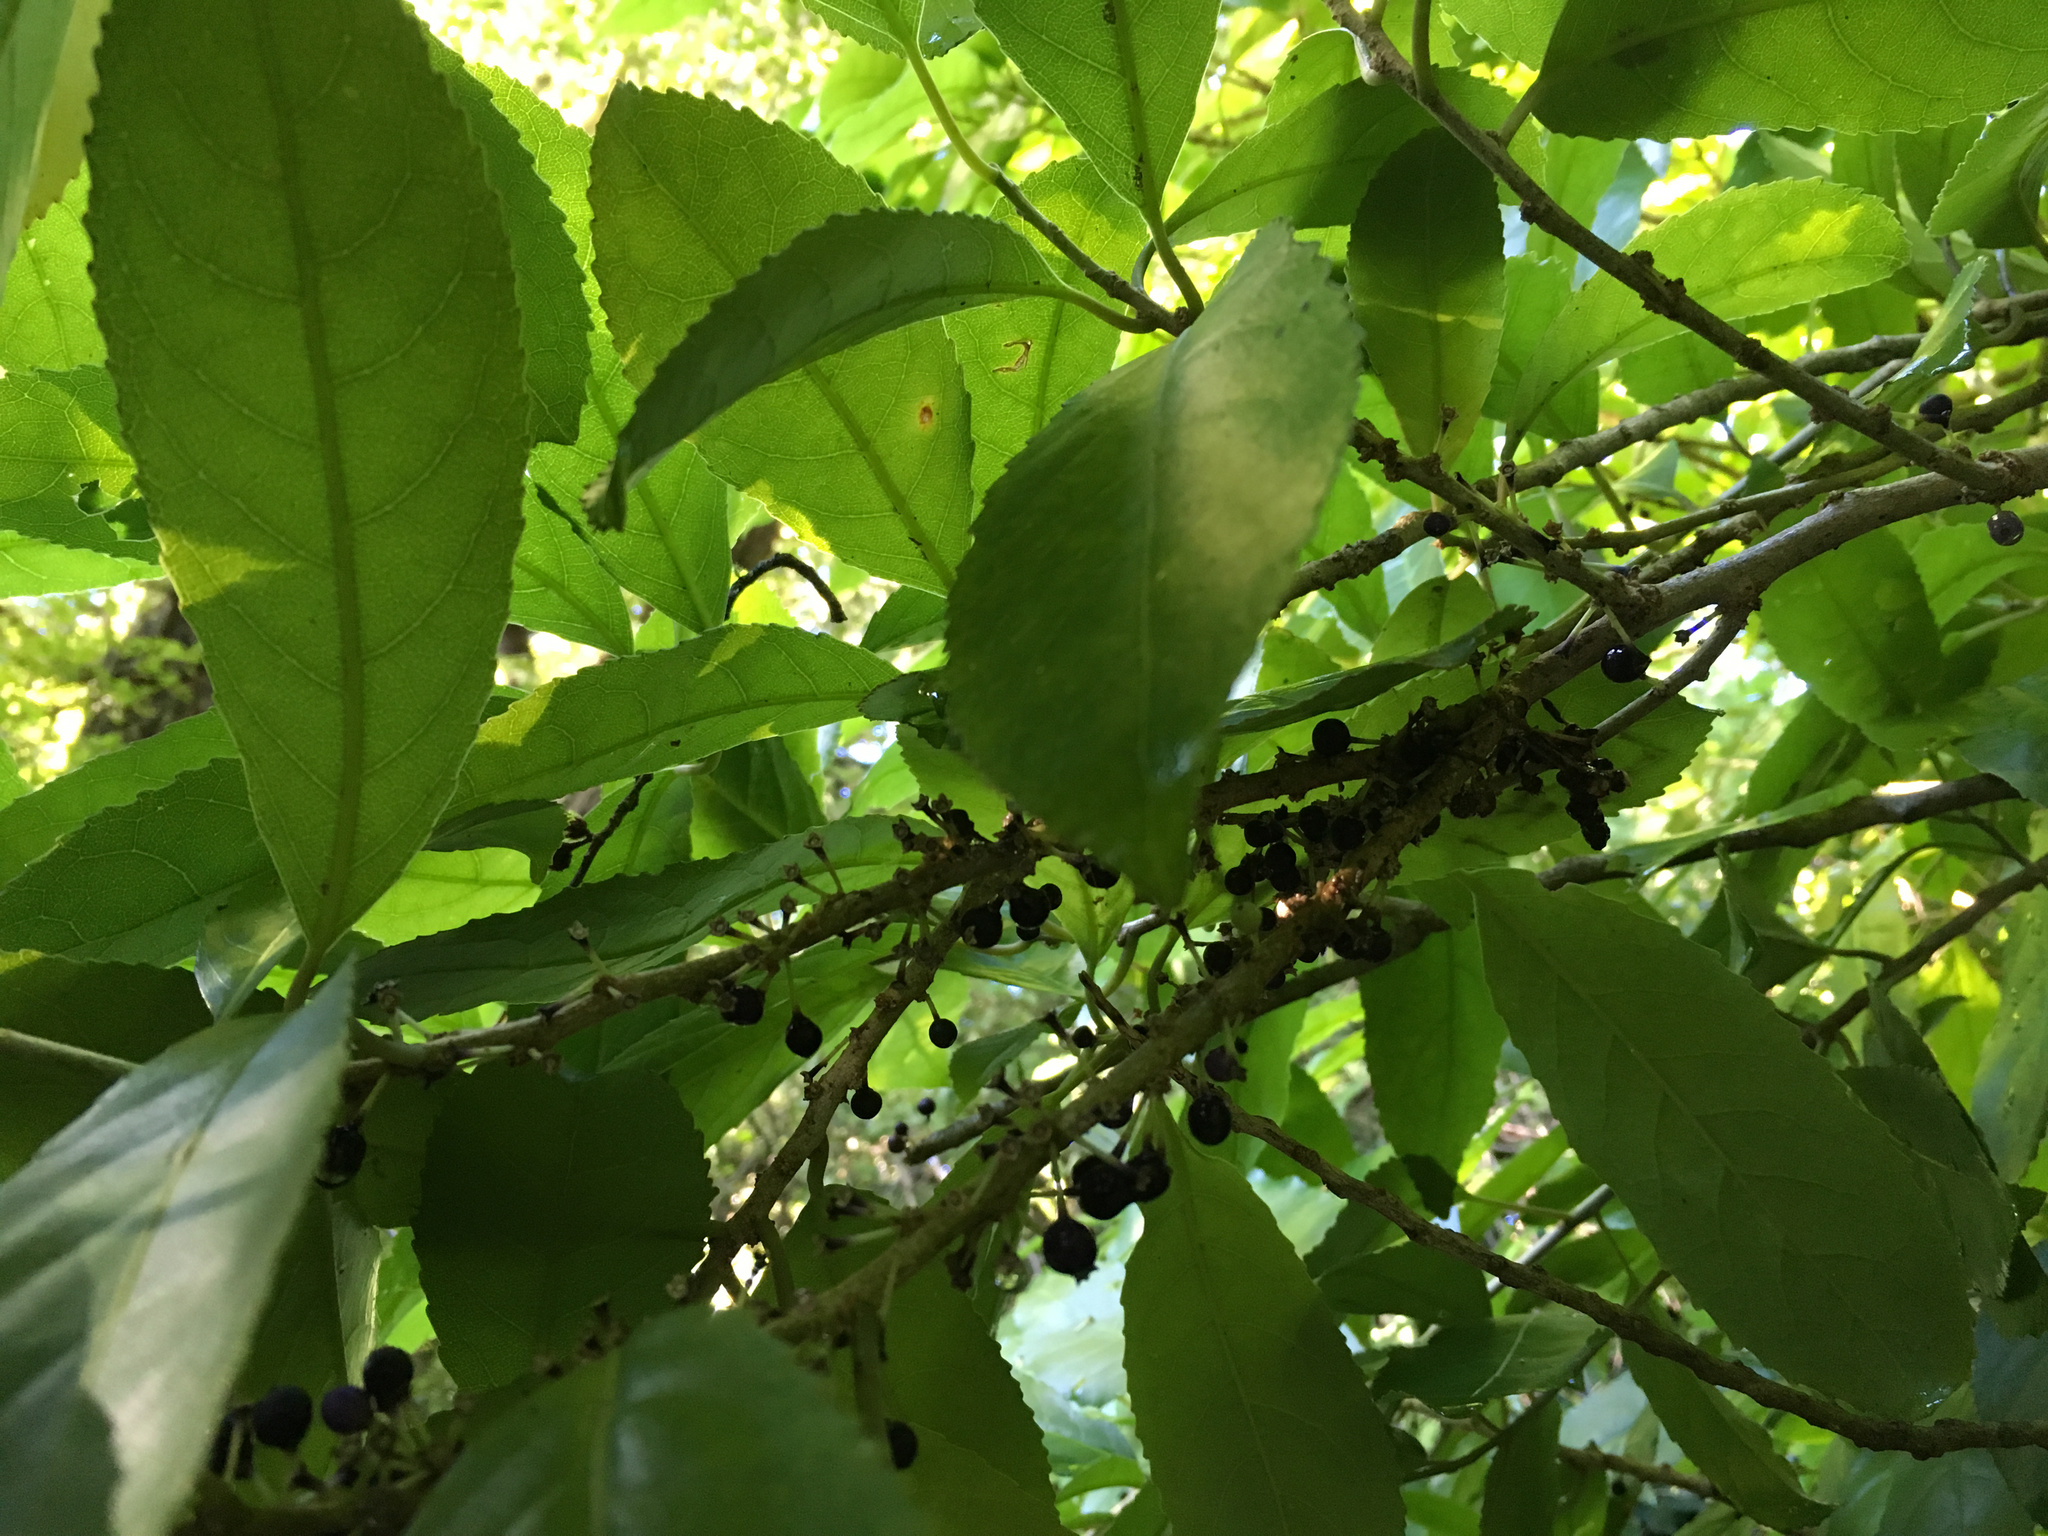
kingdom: Plantae
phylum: Tracheophyta
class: Magnoliopsida
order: Malpighiales
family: Violaceae
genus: Melicytus
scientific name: Melicytus ramiflorus
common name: Mahoe
